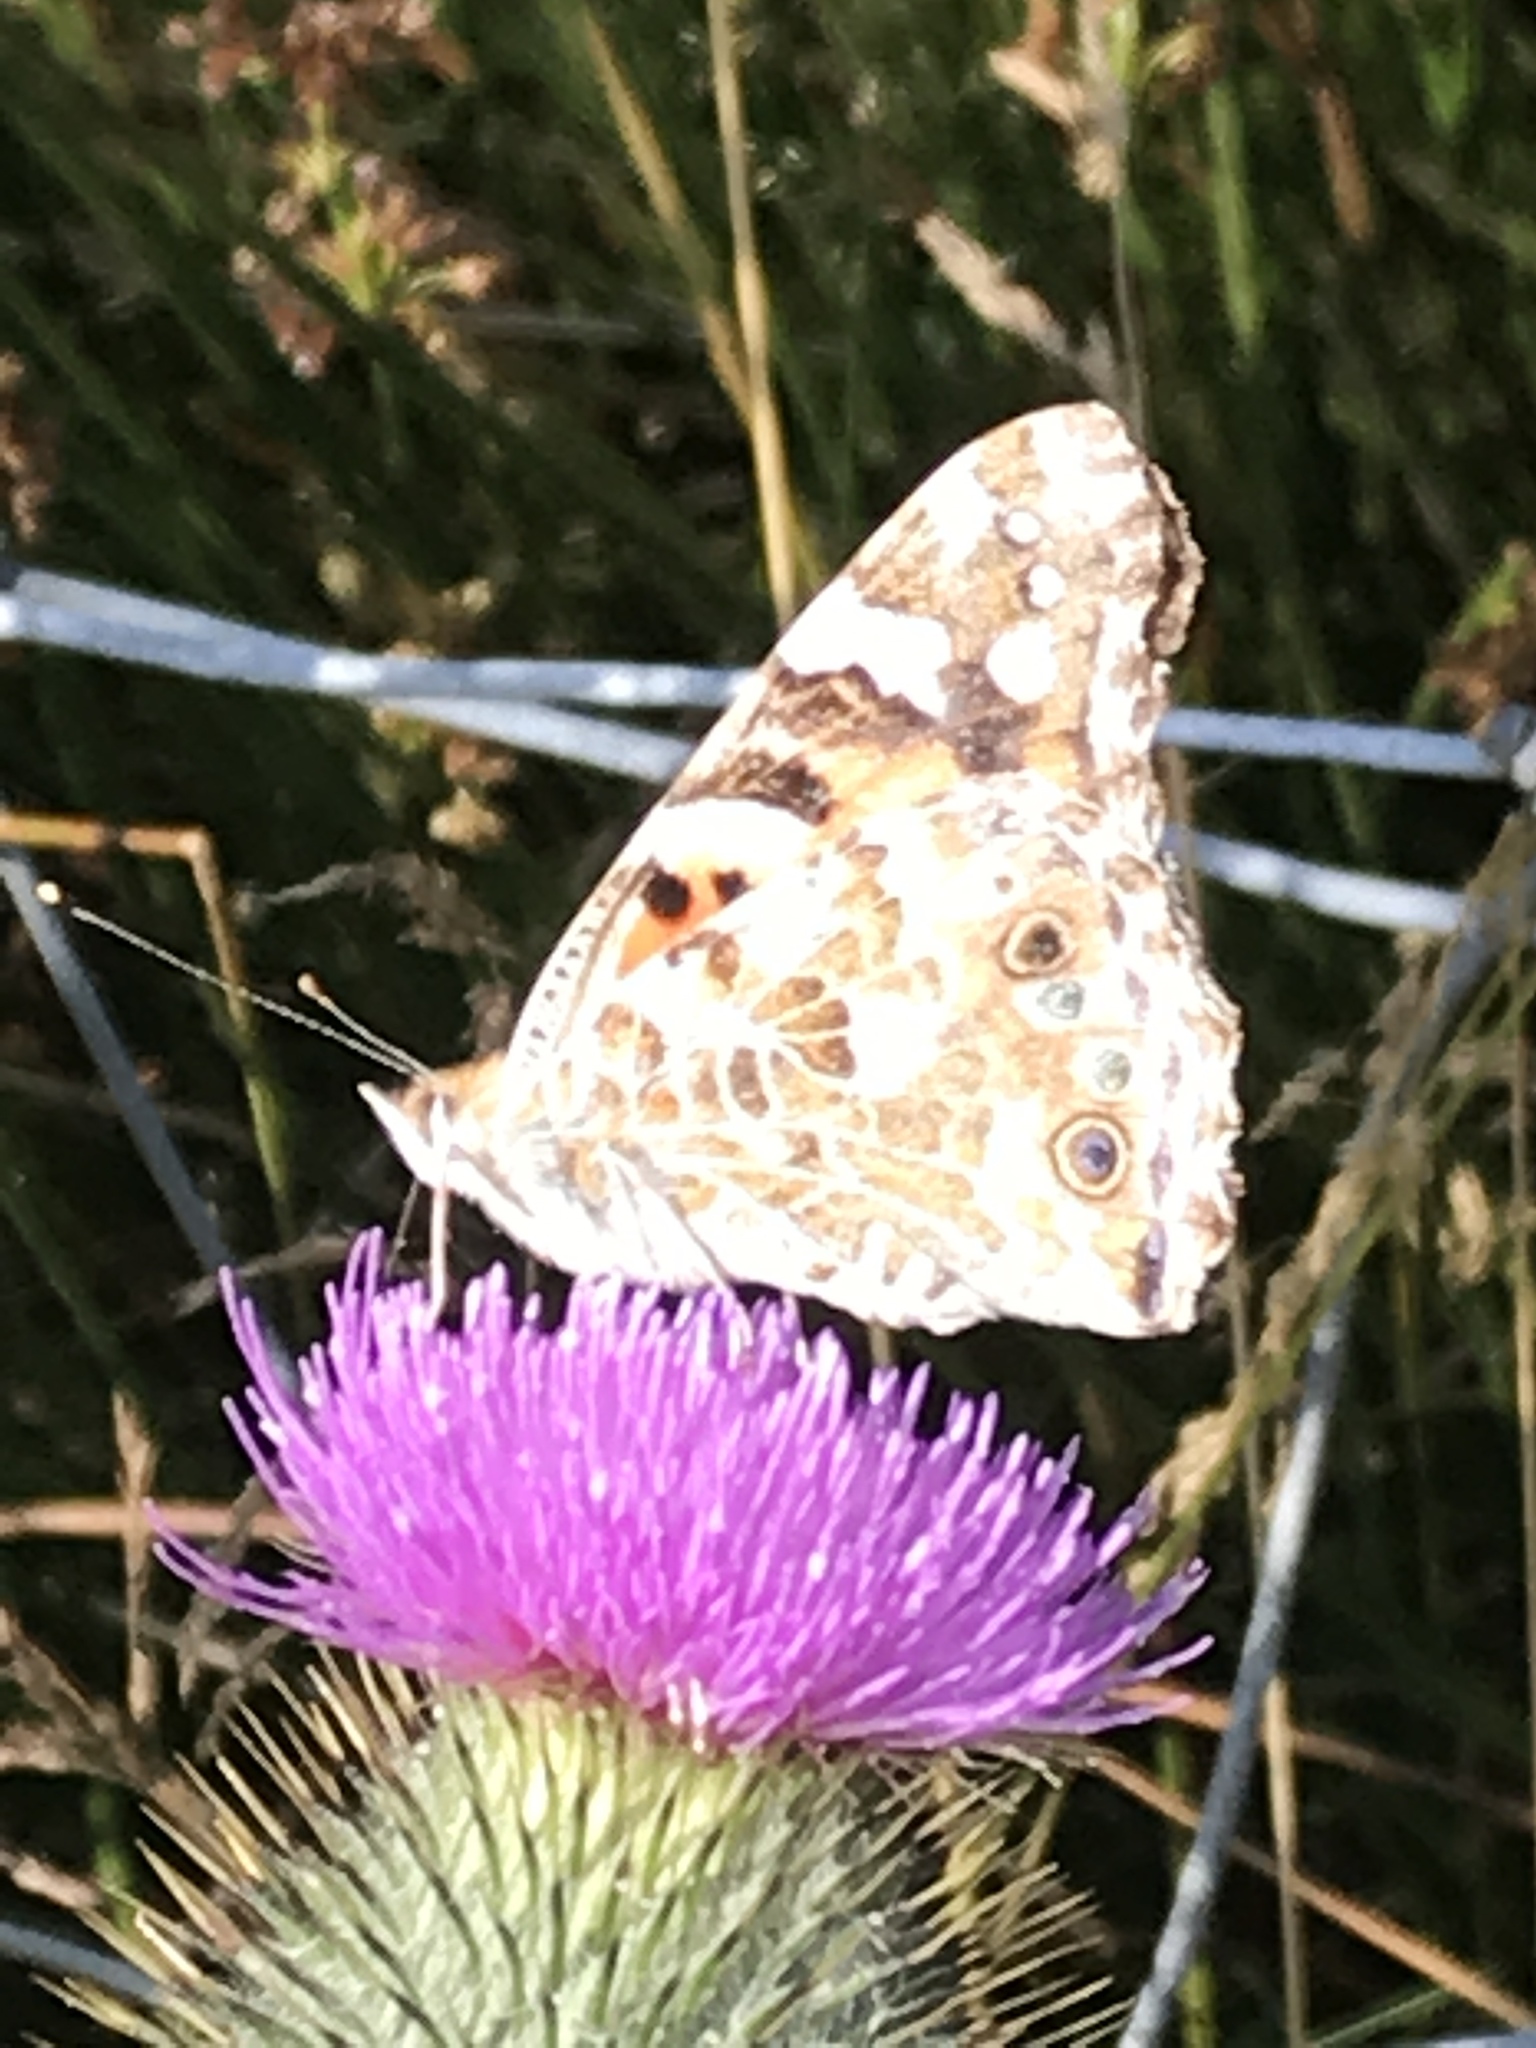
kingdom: Animalia
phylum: Arthropoda
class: Insecta
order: Lepidoptera
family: Nymphalidae
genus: Vanessa
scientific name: Vanessa cardui
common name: Painted lady
